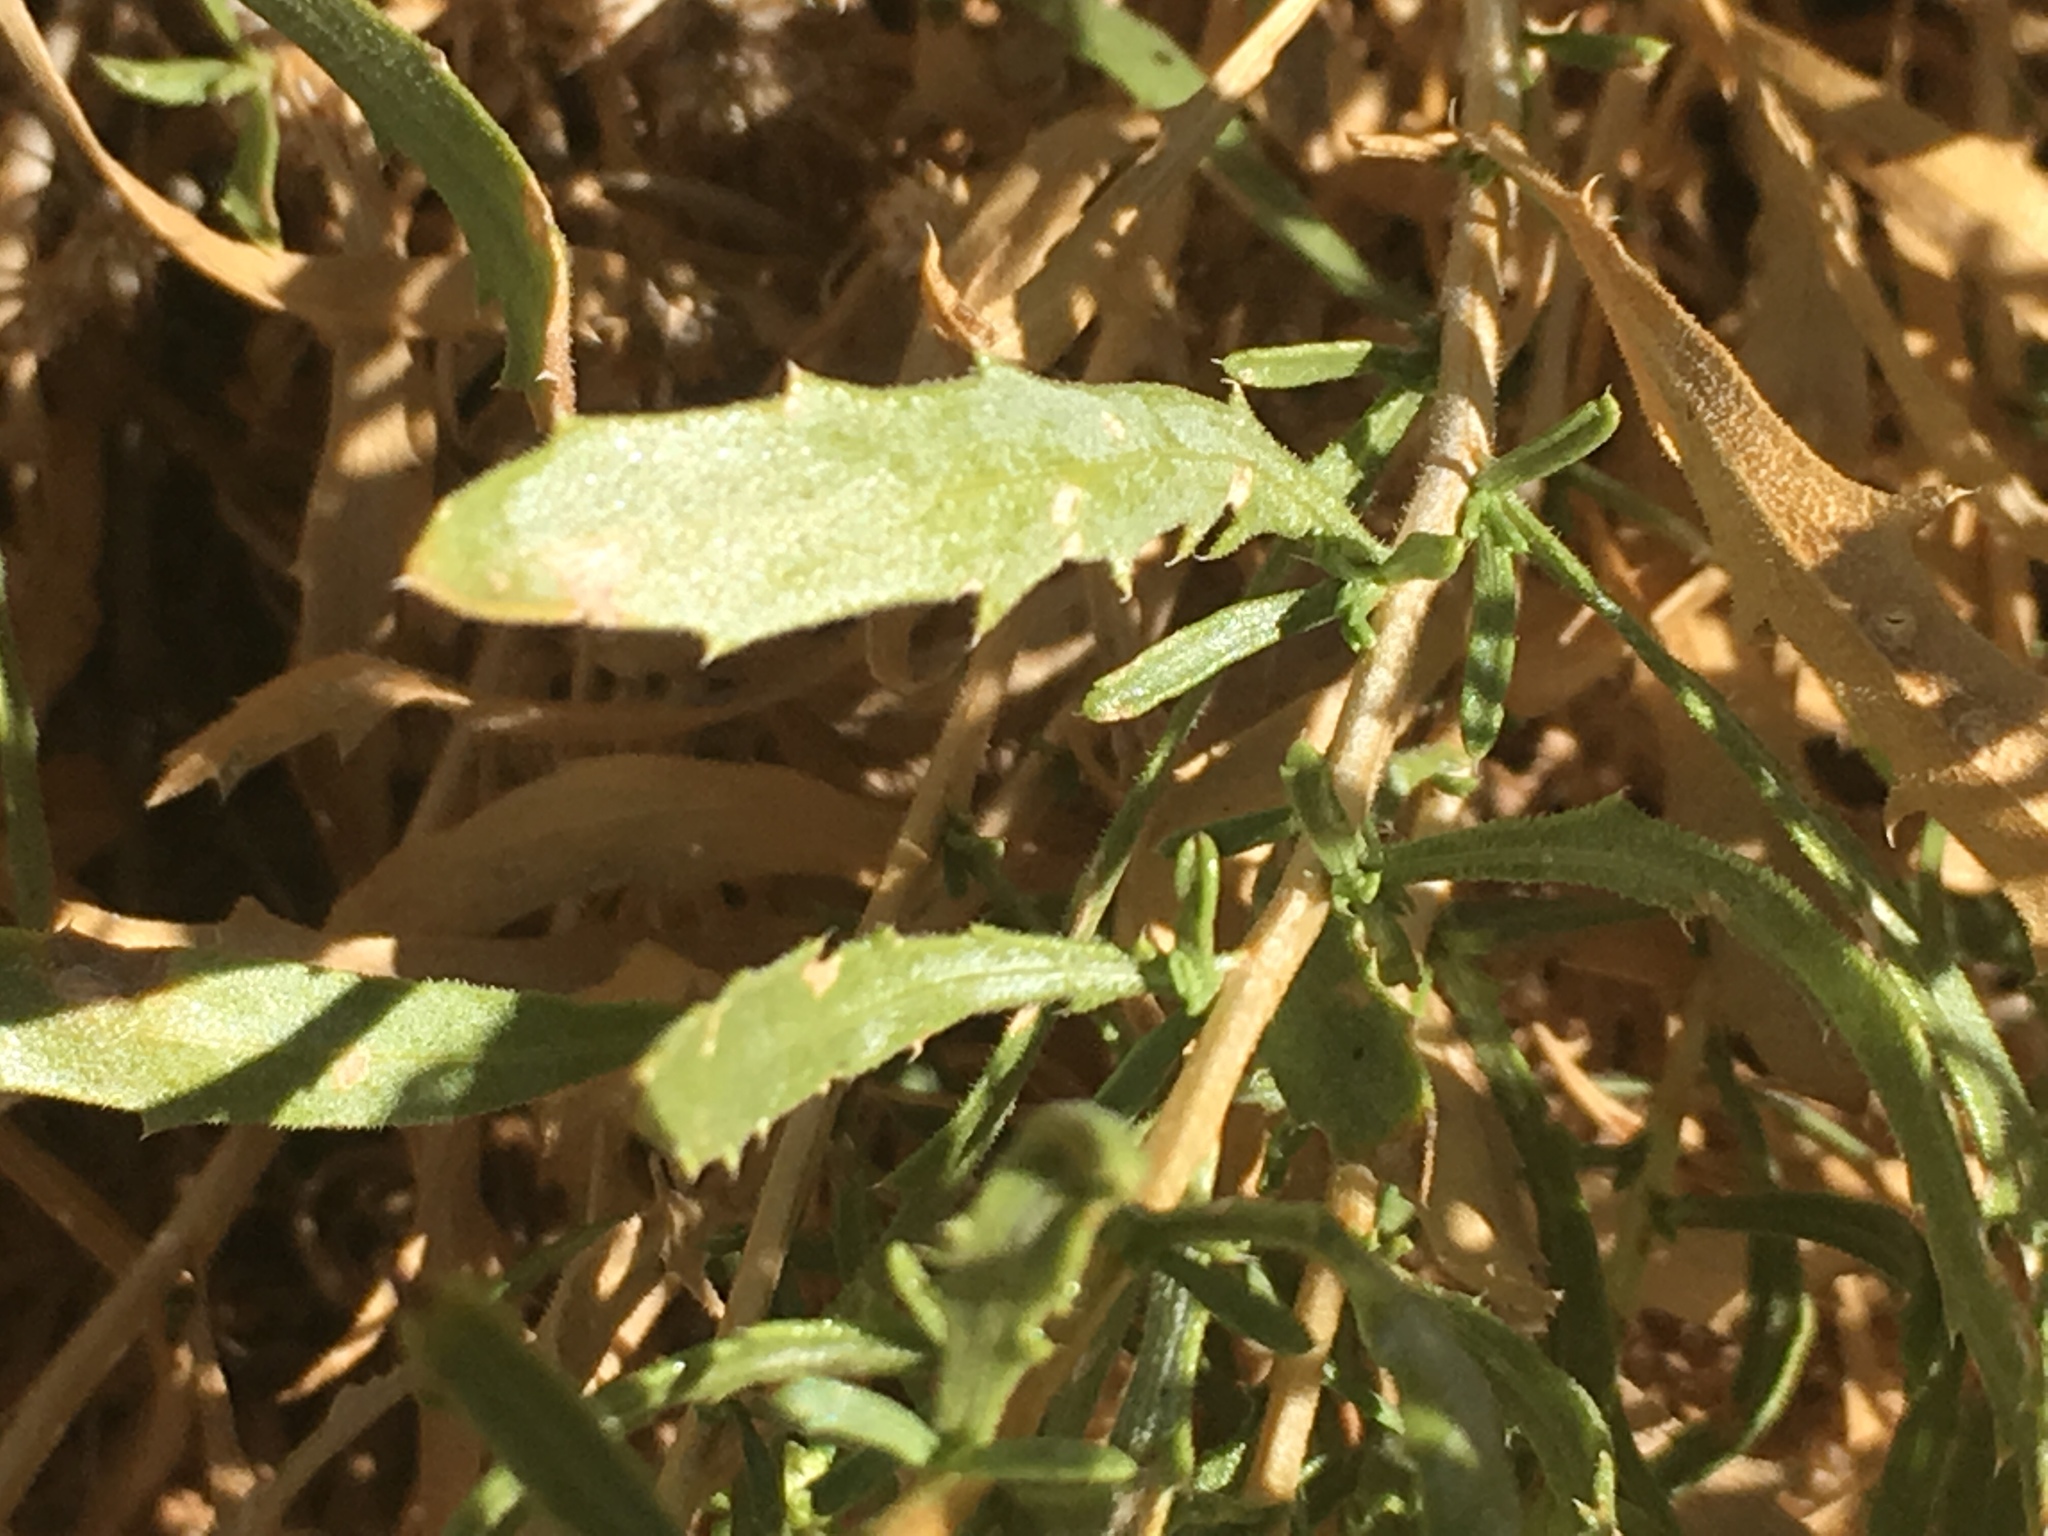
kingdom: Plantae
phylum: Tracheophyta
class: Magnoliopsida
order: Asterales
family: Asteraceae
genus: Isocoma
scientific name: Isocoma acradenia
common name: Alkali jimmyweed
